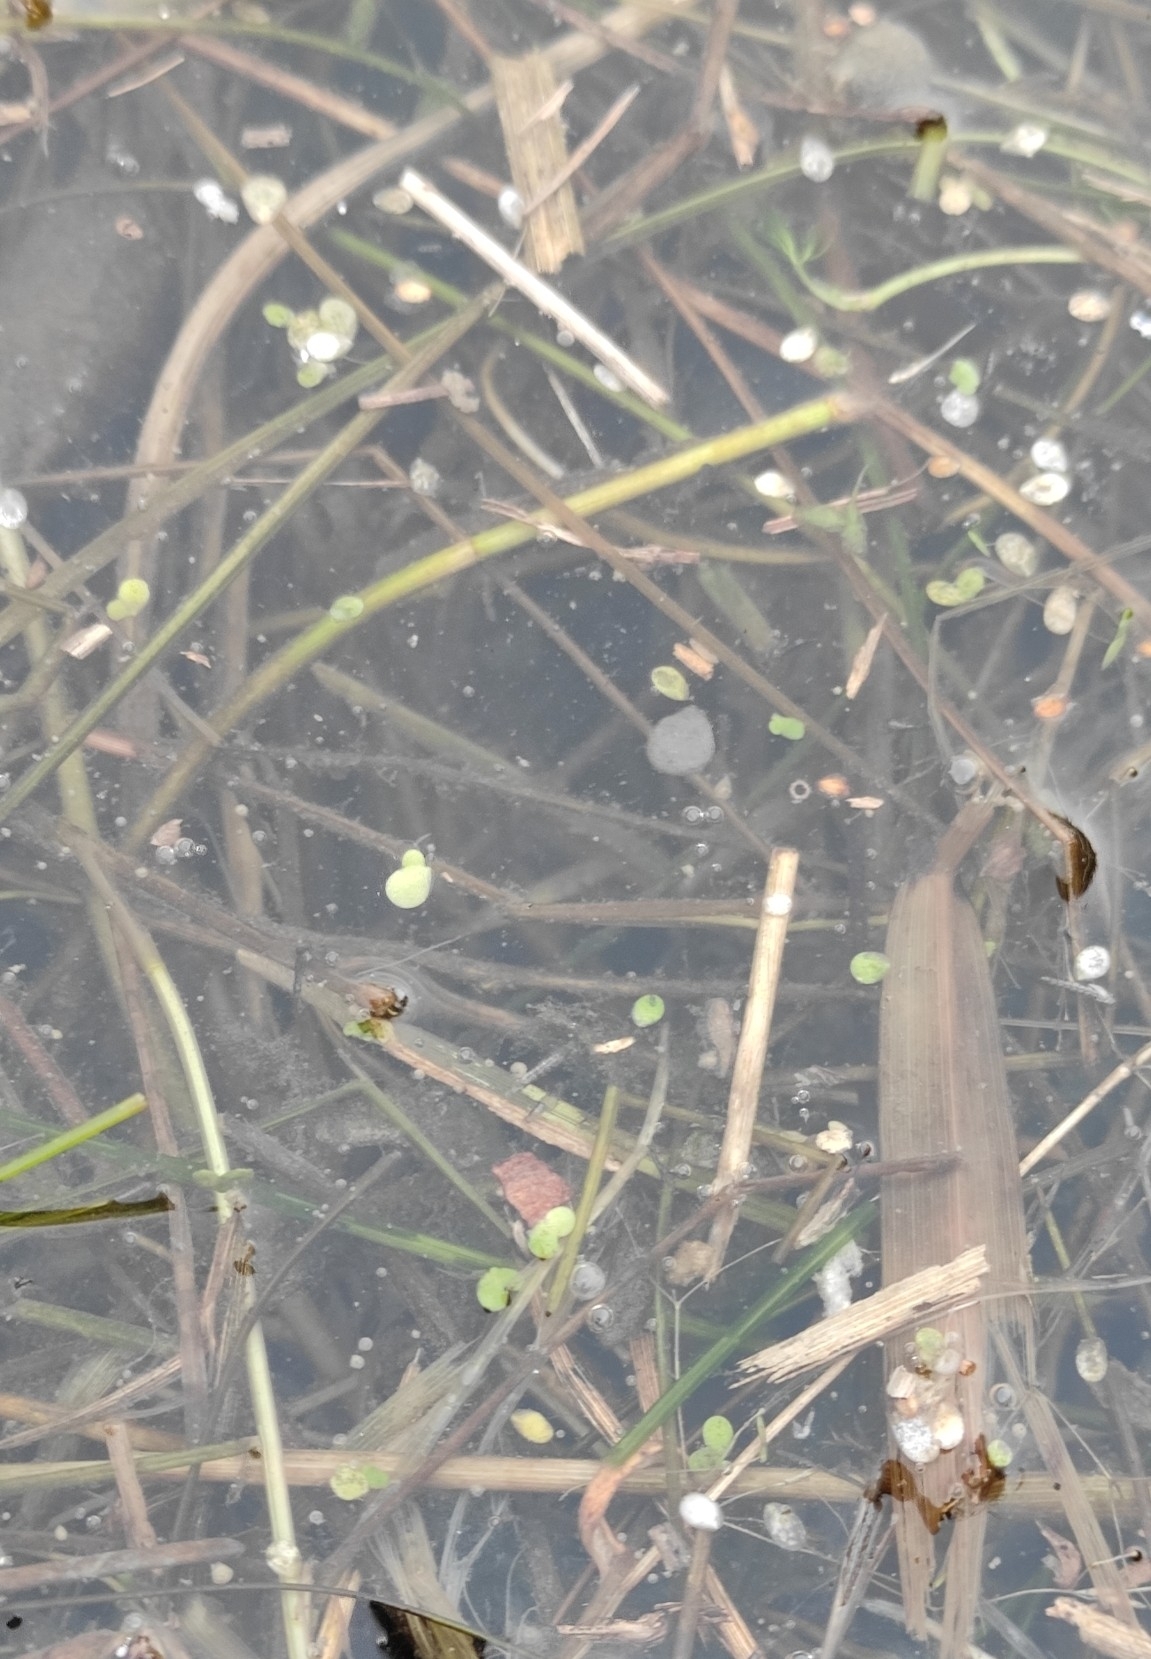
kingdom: Plantae
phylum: Tracheophyta
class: Liliopsida
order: Alismatales
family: Araceae
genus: Lemna
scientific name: Lemna minor
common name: Common duckweed
